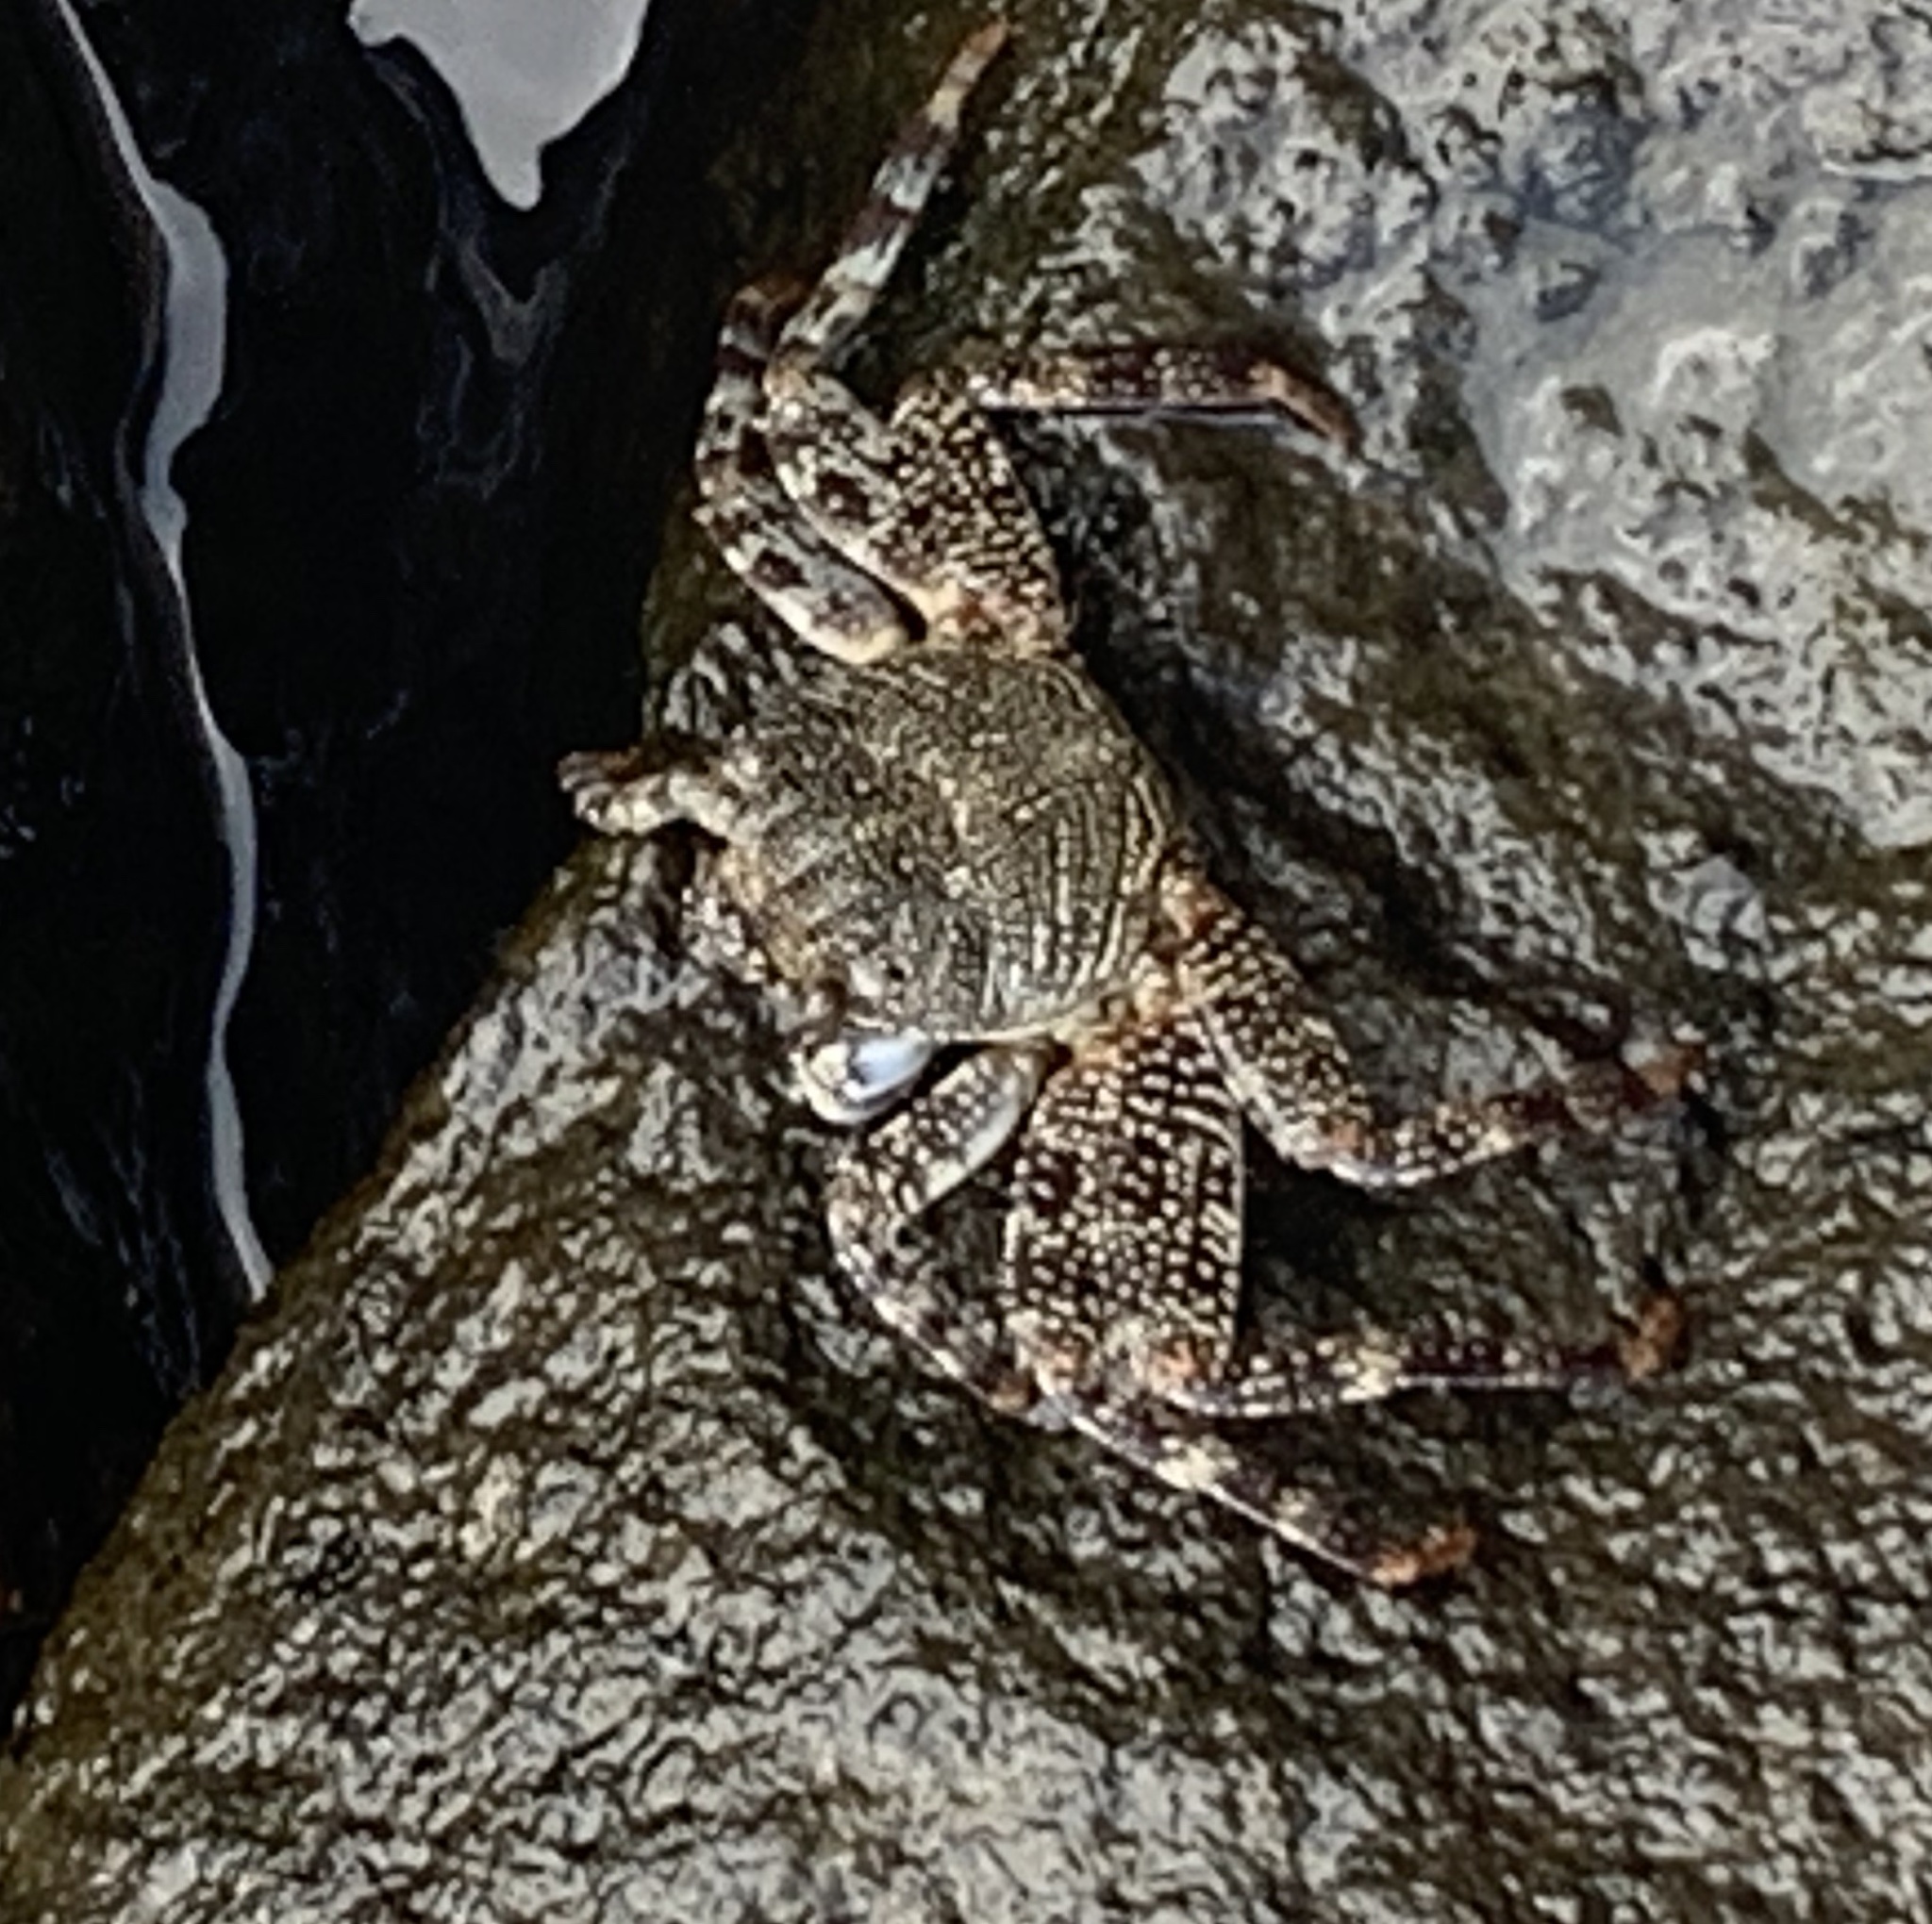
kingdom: Animalia
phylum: Arthropoda
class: Malacostraca
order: Decapoda
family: Grapsidae
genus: Grapsus
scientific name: Grapsus grapsus
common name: Sally lightfoot
